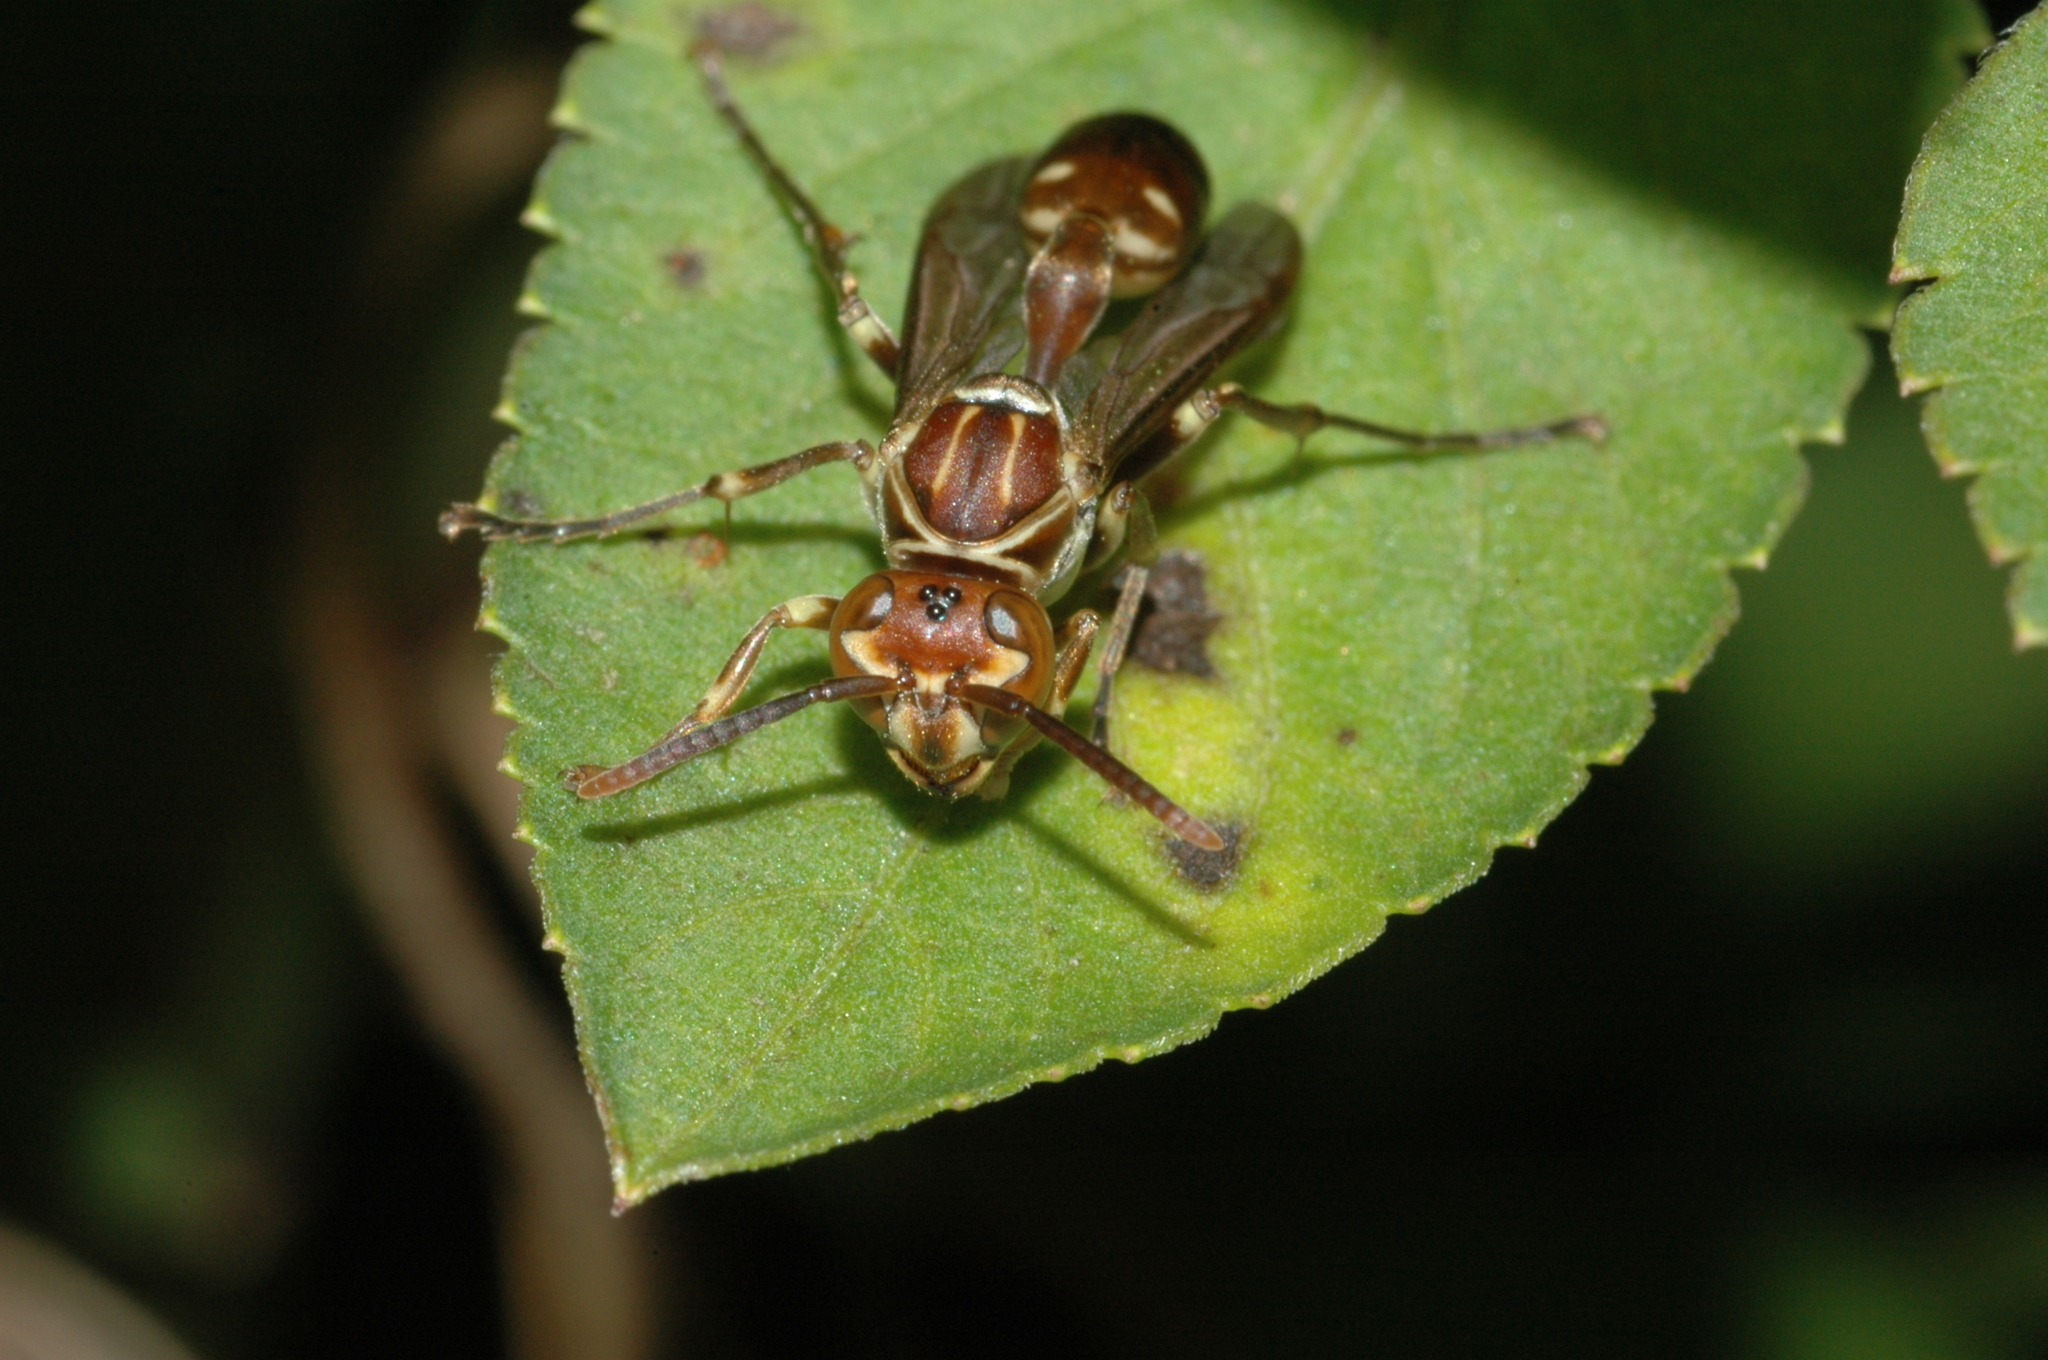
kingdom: Animalia
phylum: Arthropoda
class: Insecta
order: Hymenoptera
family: Vespidae
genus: Parapolybia
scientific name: Parapolybia nodosa
